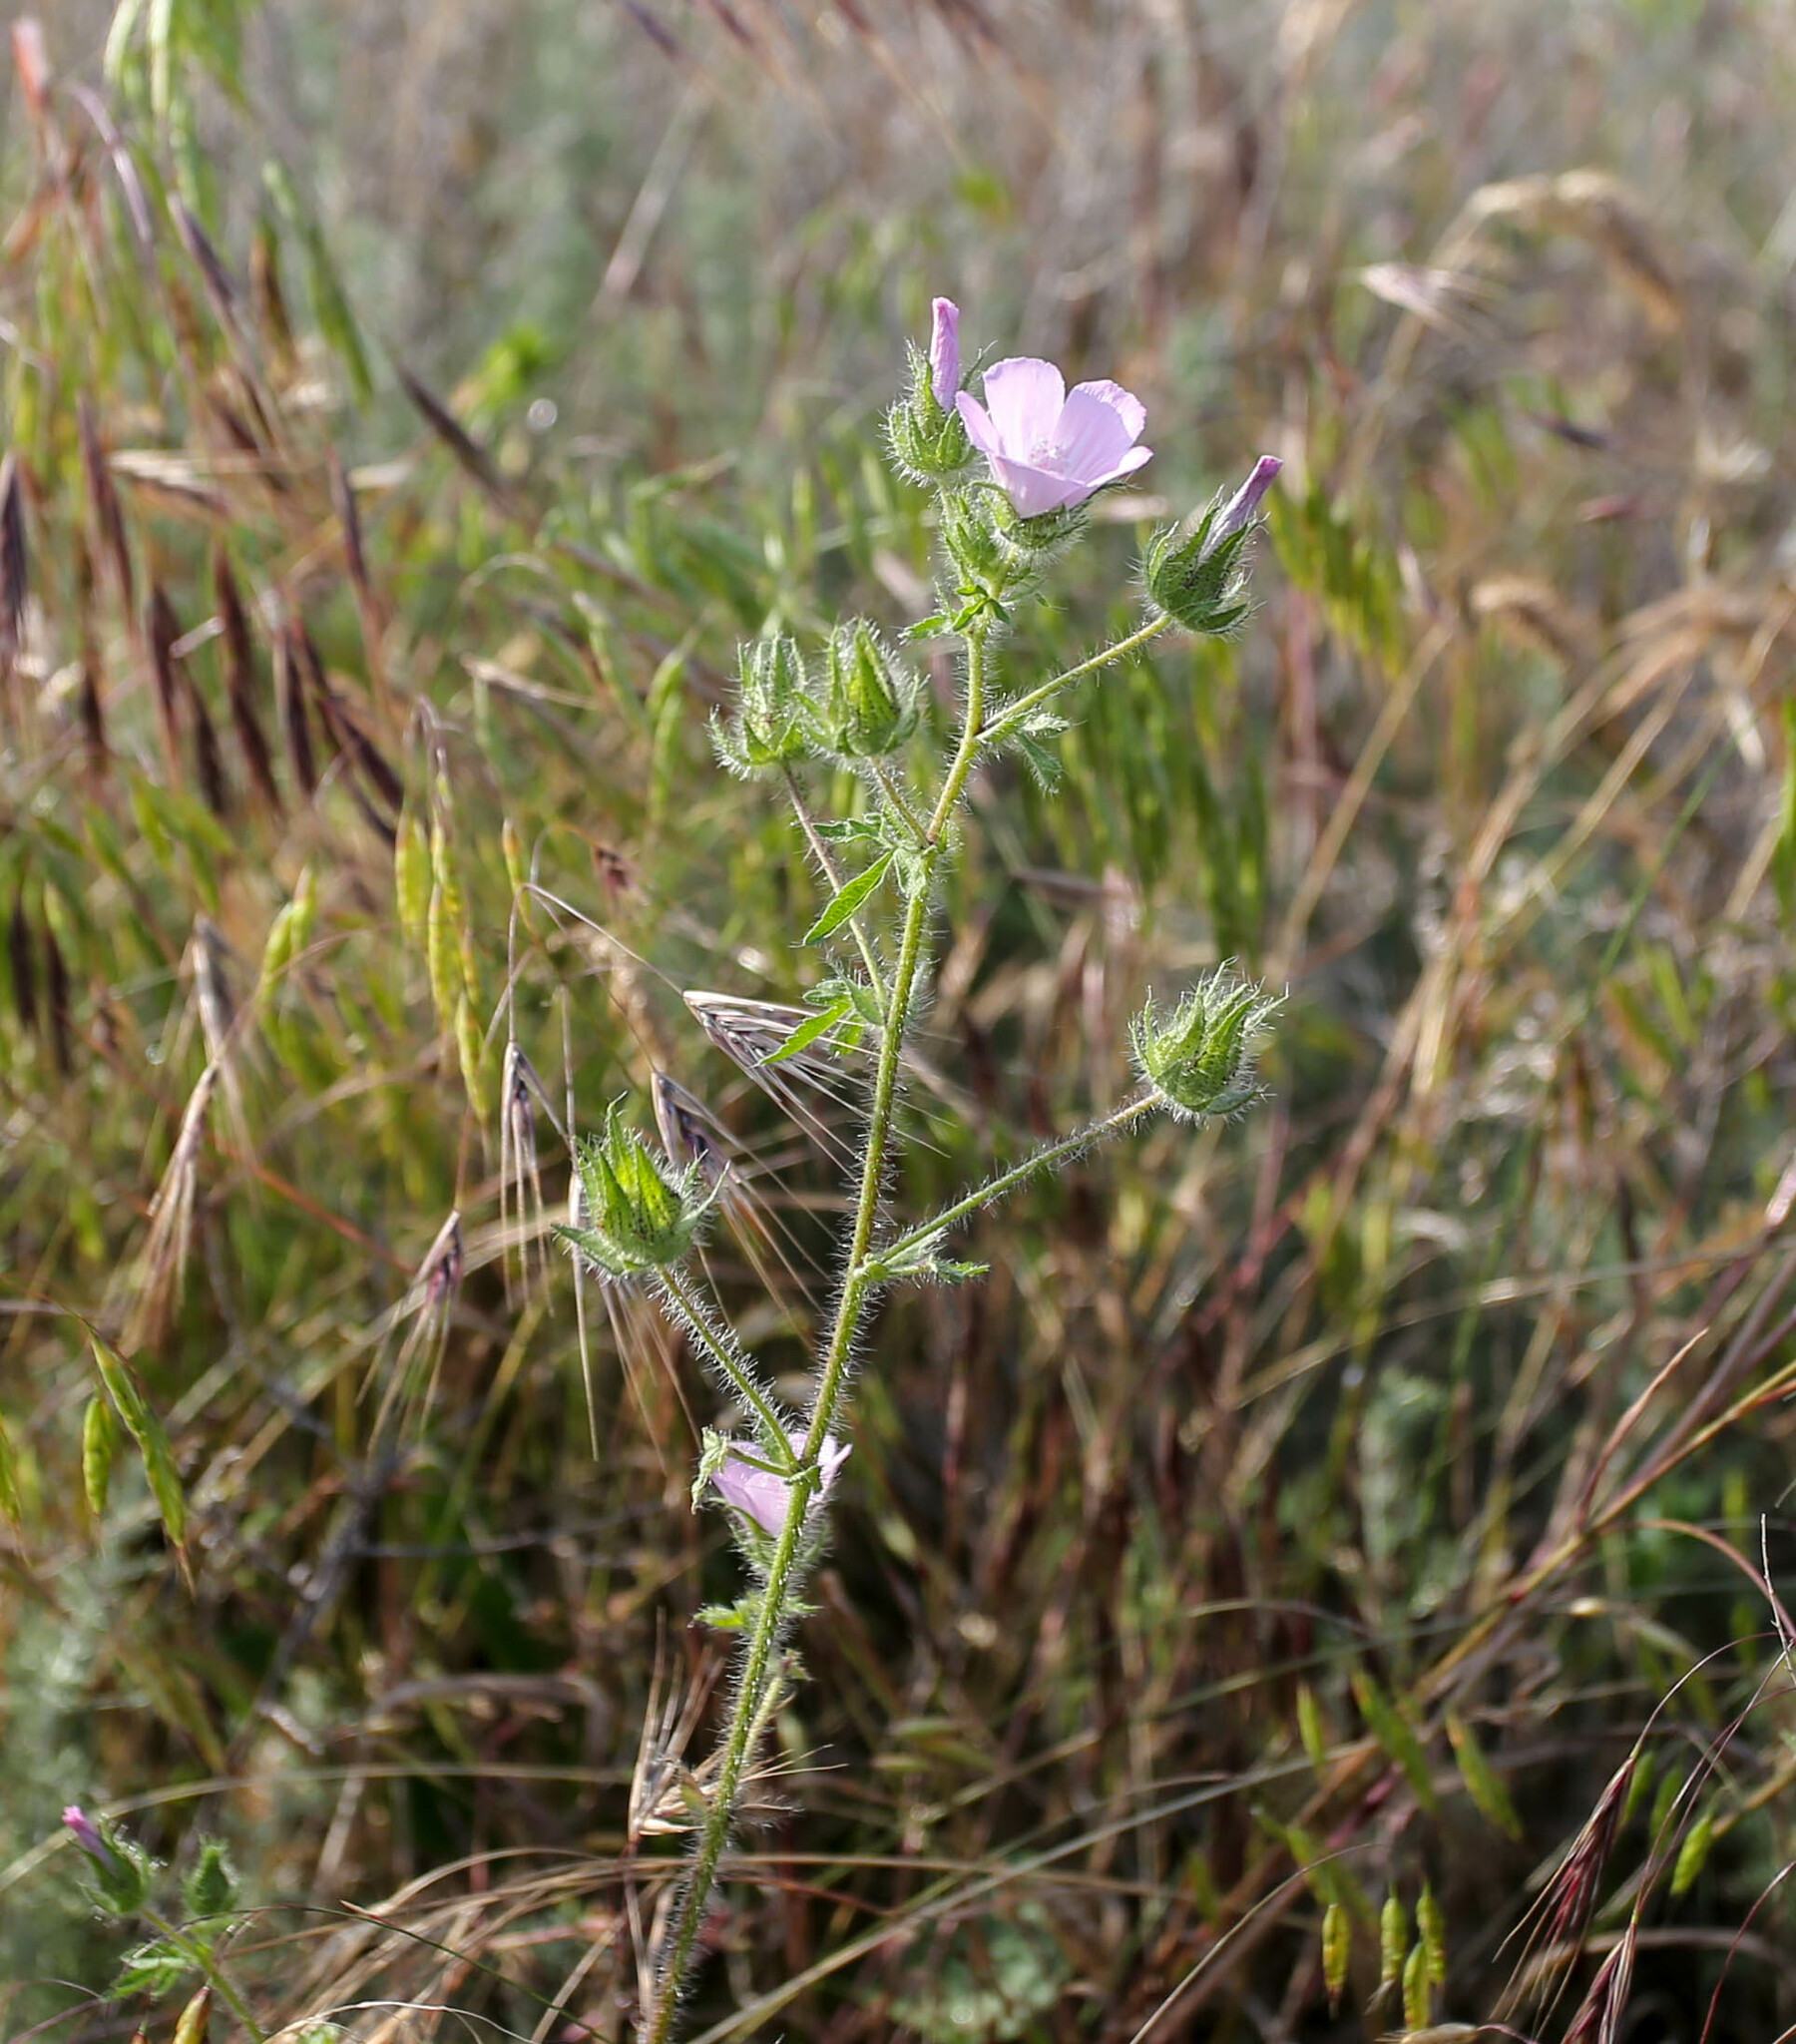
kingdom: Plantae
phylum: Tracheophyta
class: Magnoliopsida
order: Malvales
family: Malvaceae
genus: Althaea
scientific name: Althaea hirsuta
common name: Rough marsh-mallow
